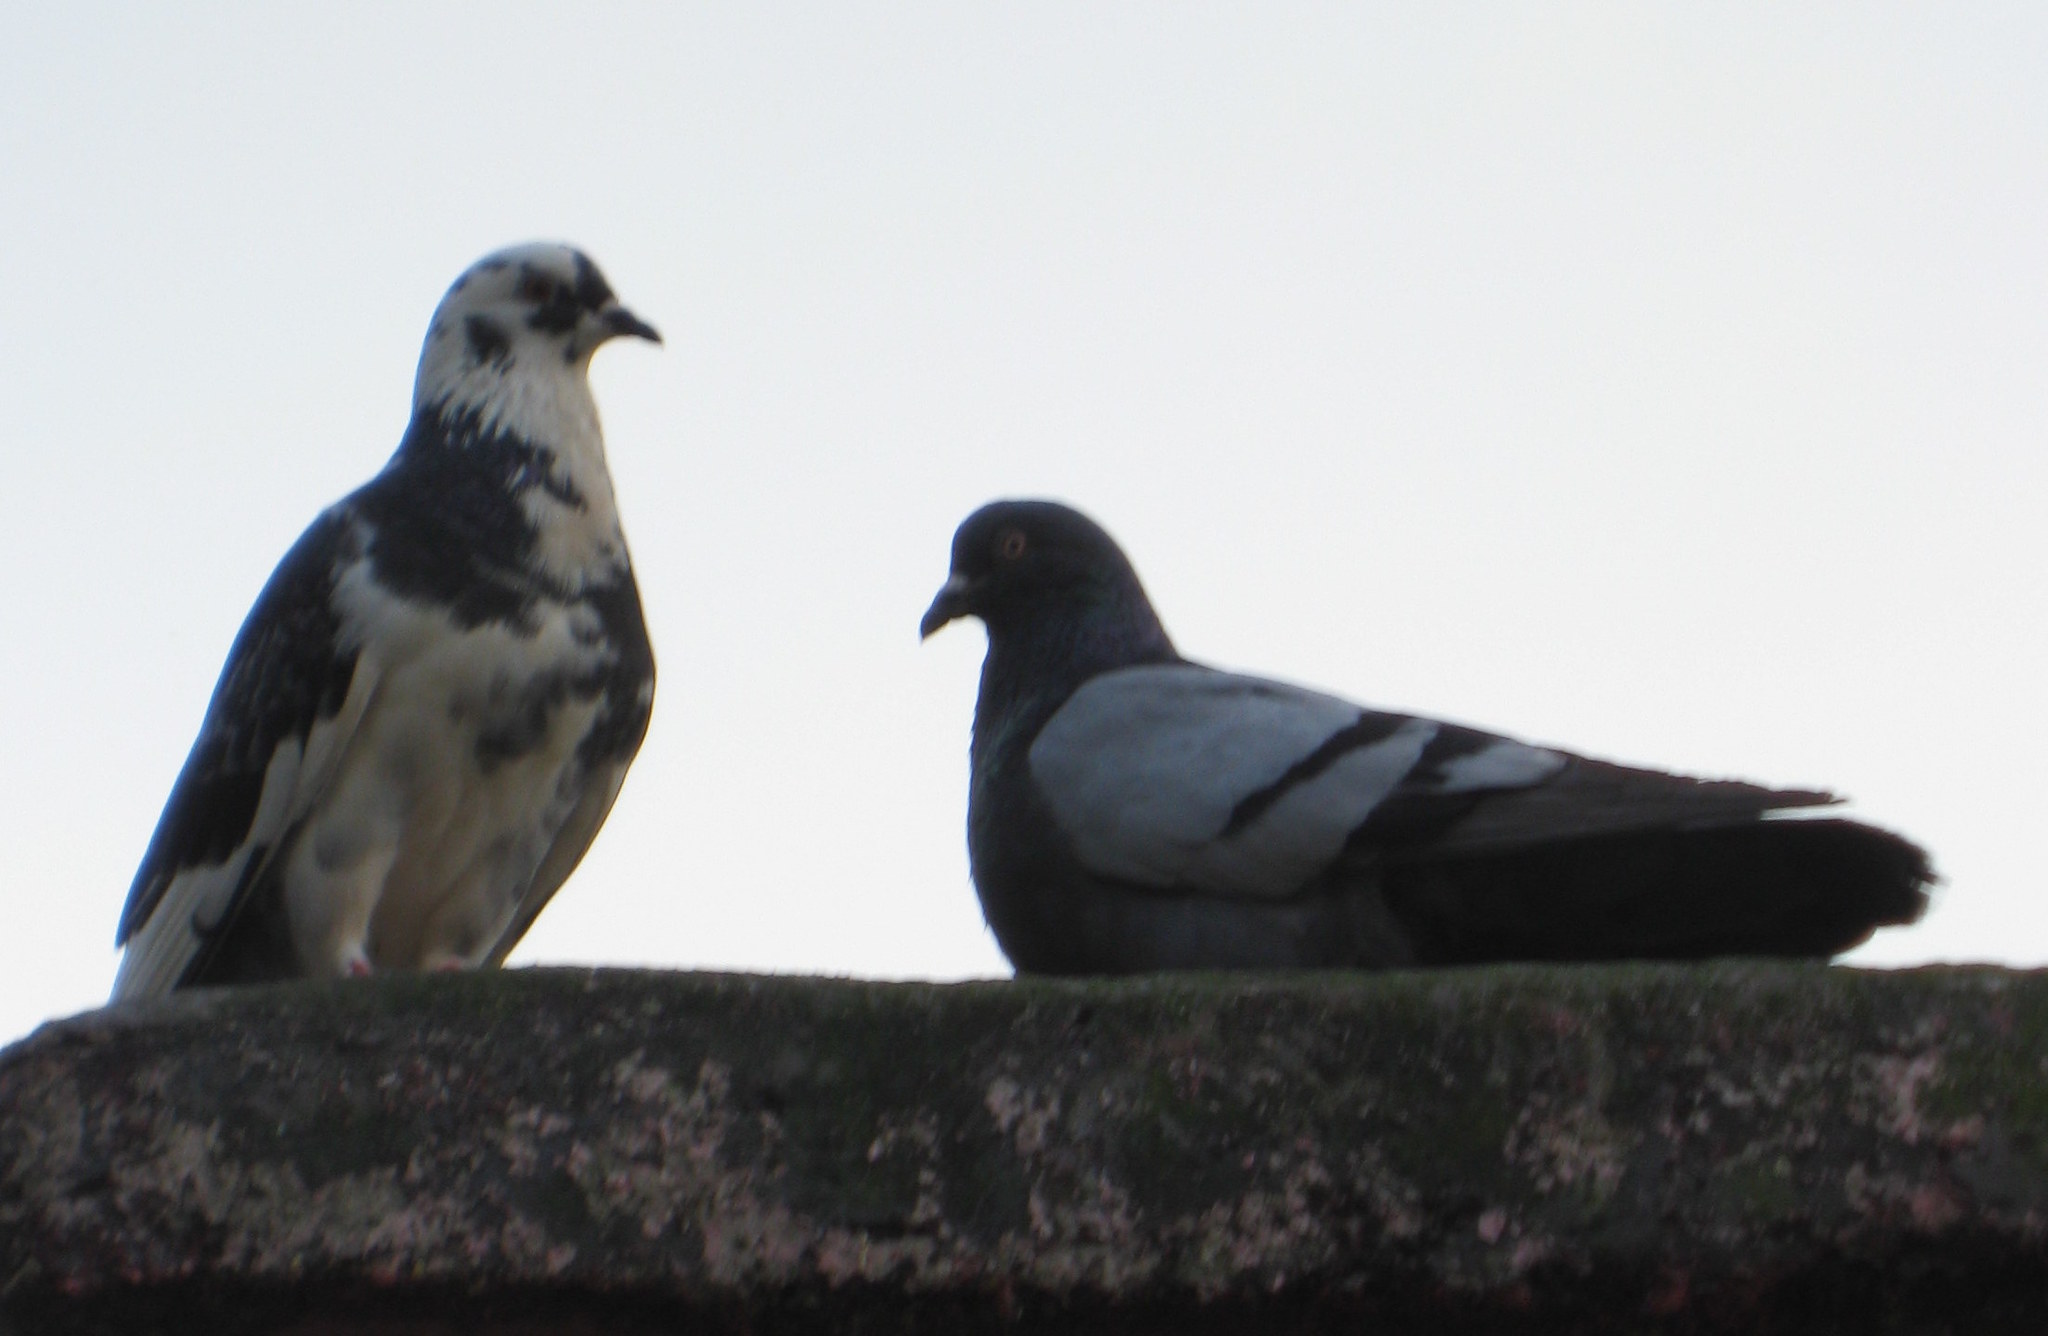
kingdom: Animalia
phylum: Chordata
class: Aves
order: Columbiformes
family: Columbidae
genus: Columba
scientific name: Columba livia
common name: Rock pigeon
